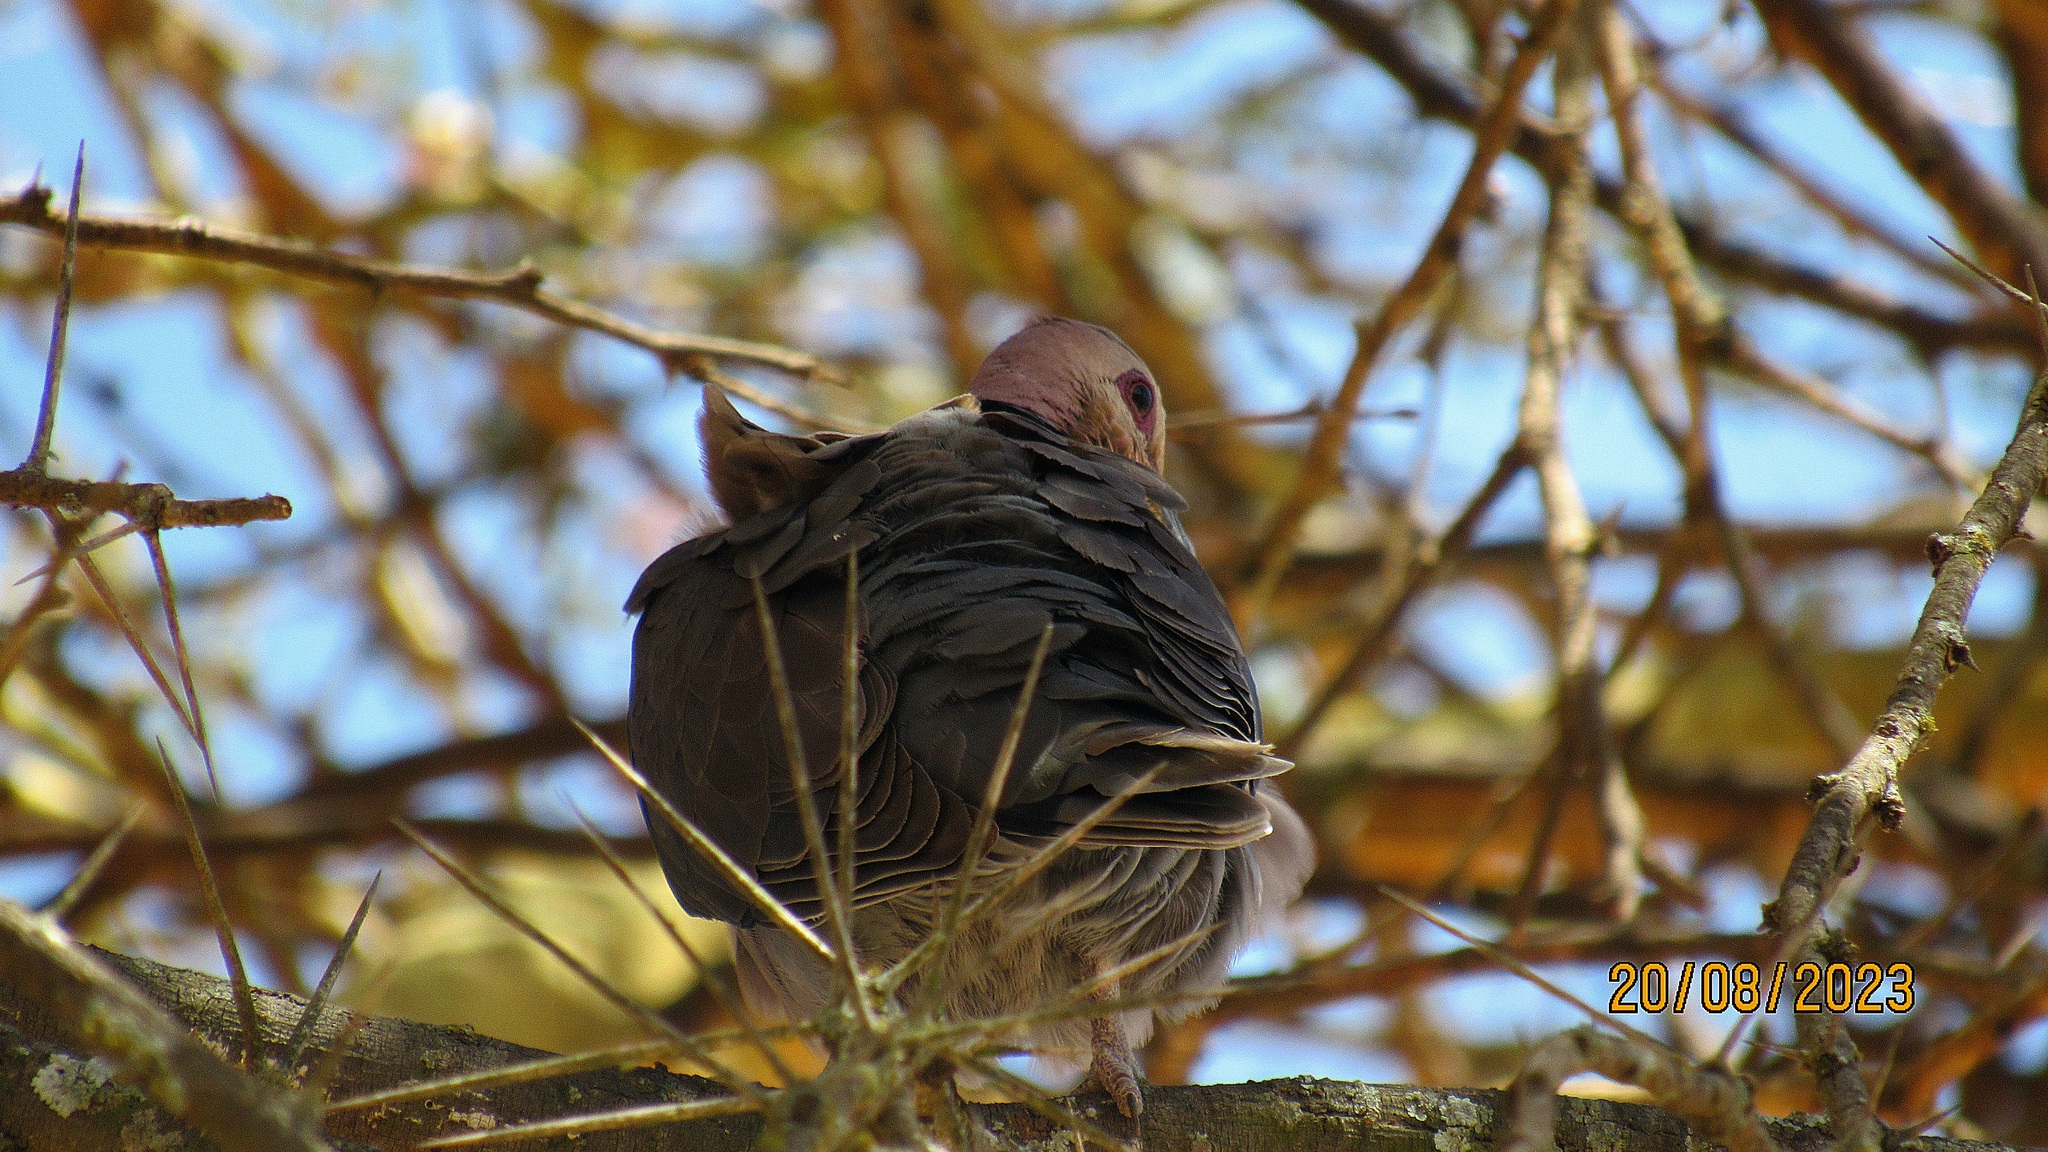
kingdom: Animalia
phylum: Chordata
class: Aves
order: Columbiformes
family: Columbidae
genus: Streptopelia
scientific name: Streptopelia semitorquata
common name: Red-eyed dove
